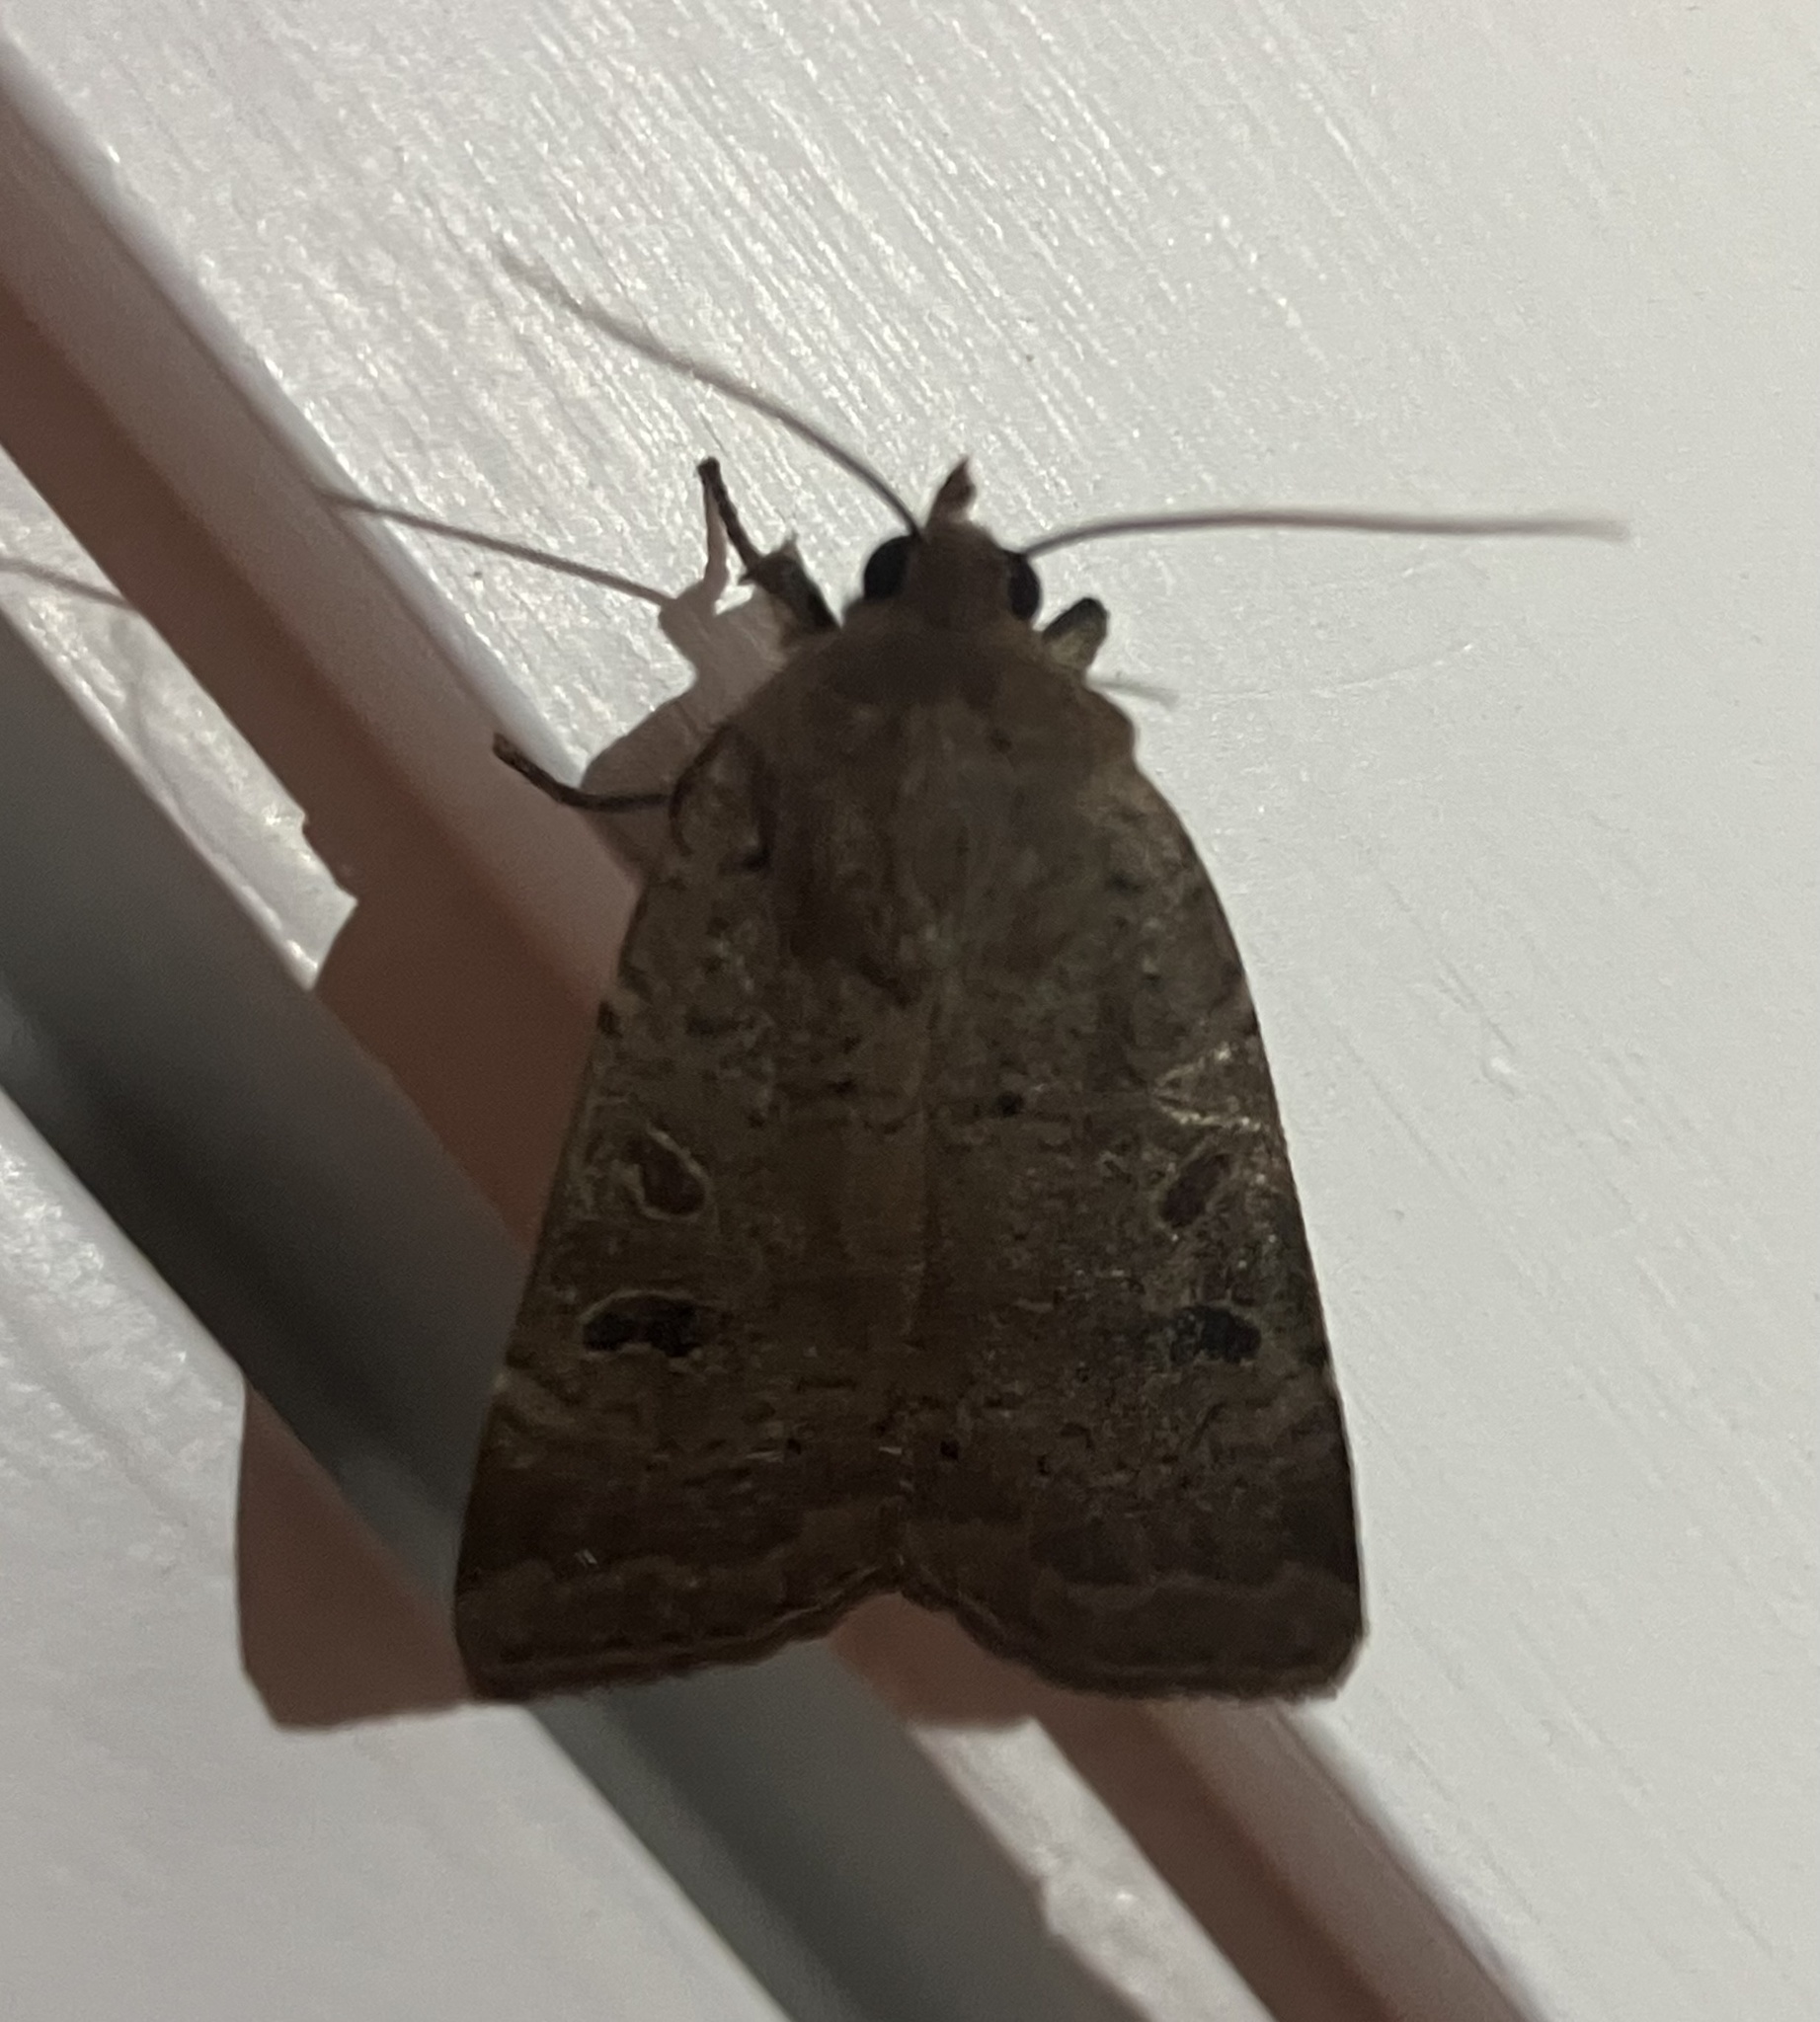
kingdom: Animalia
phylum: Arthropoda
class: Insecta
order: Lepidoptera
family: Noctuidae
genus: Noctua
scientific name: Noctua comes
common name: Lesser yellow underwing
